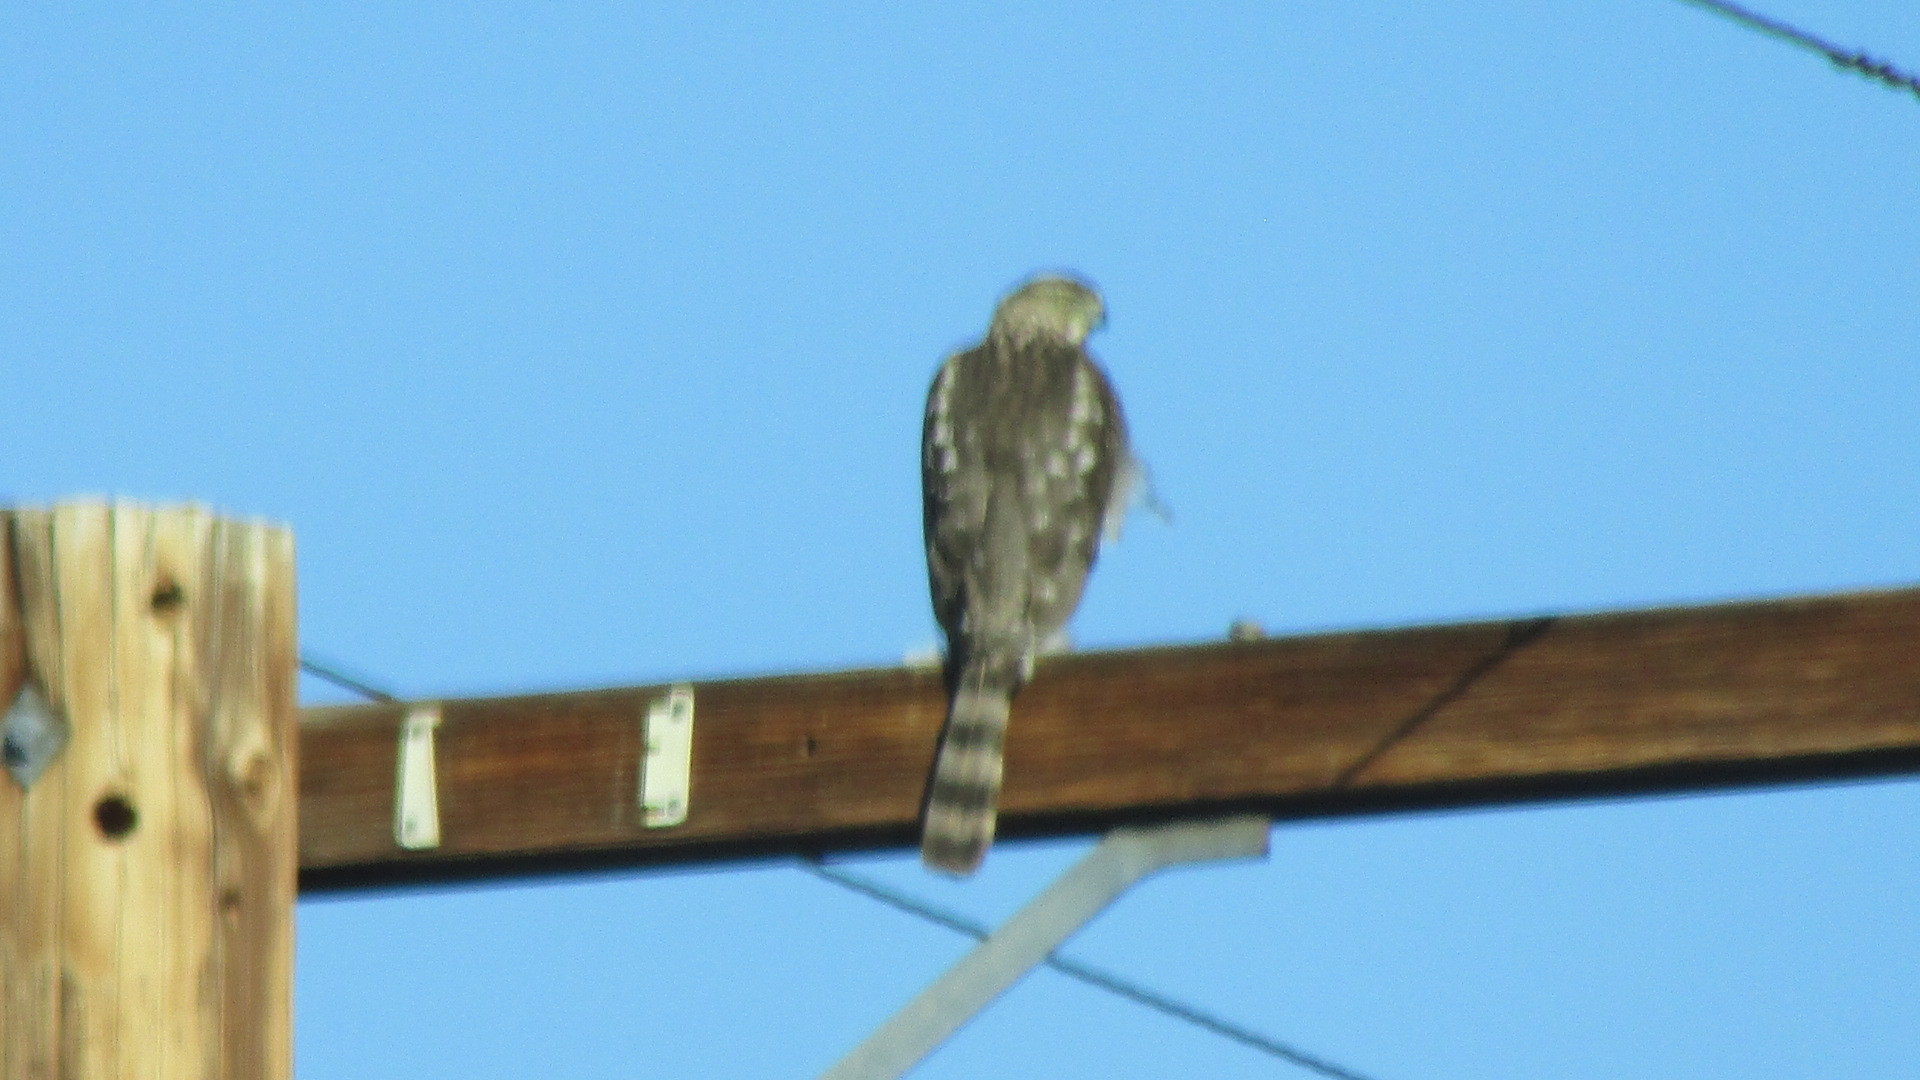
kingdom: Animalia
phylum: Chordata
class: Aves
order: Accipitriformes
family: Accipitridae
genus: Accipiter
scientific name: Accipiter cooperii
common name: Cooper's hawk
